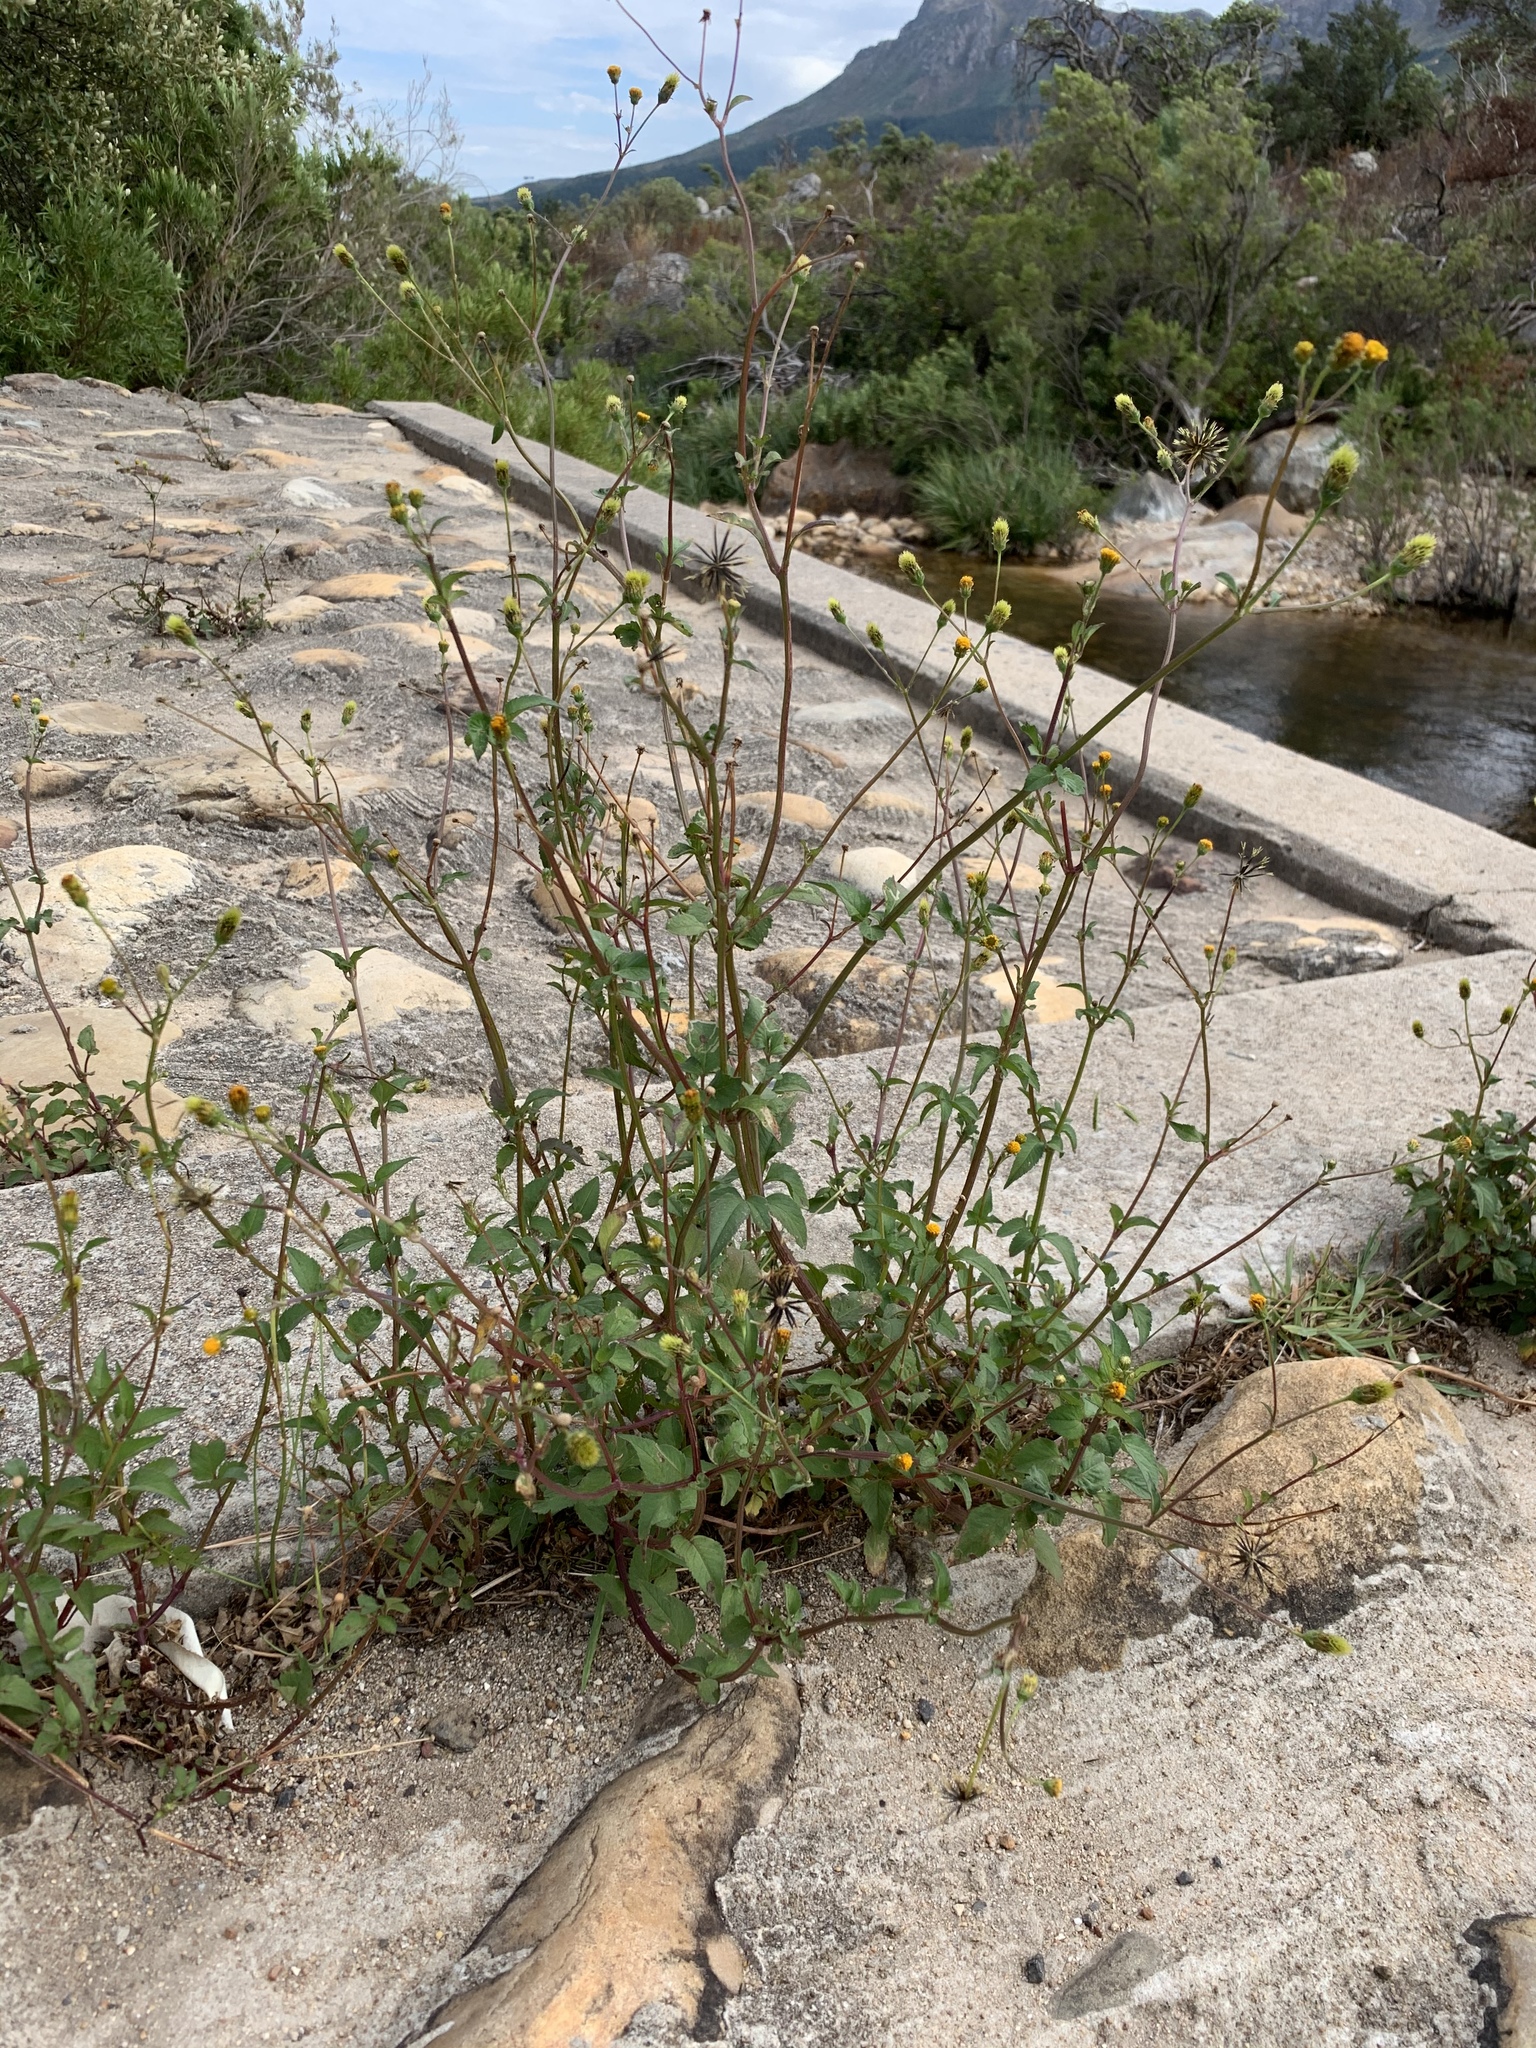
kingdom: Plantae
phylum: Tracheophyta
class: Magnoliopsida
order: Asterales
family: Asteraceae
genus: Bidens
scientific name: Bidens pilosa
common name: Black-jack
